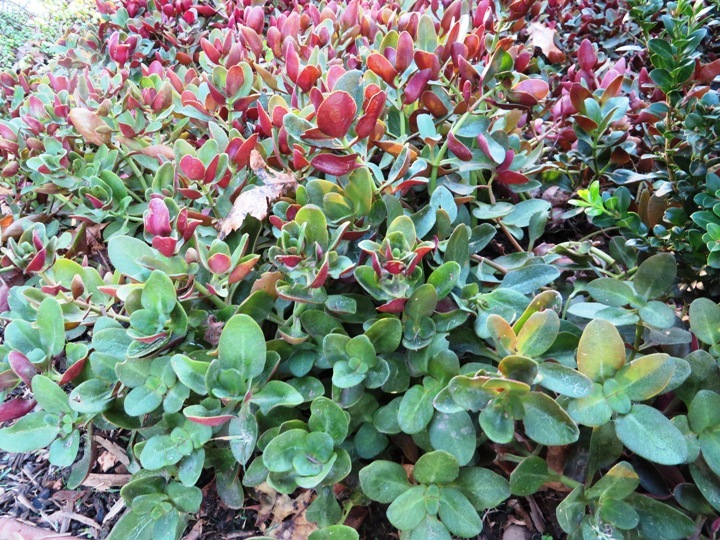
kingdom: Plantae
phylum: Tracheophyta
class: Magnoliopsida
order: Saxifragales
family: Crassulaceae
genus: Crassula
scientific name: Crassula multicava
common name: Cape province pygmyweed
